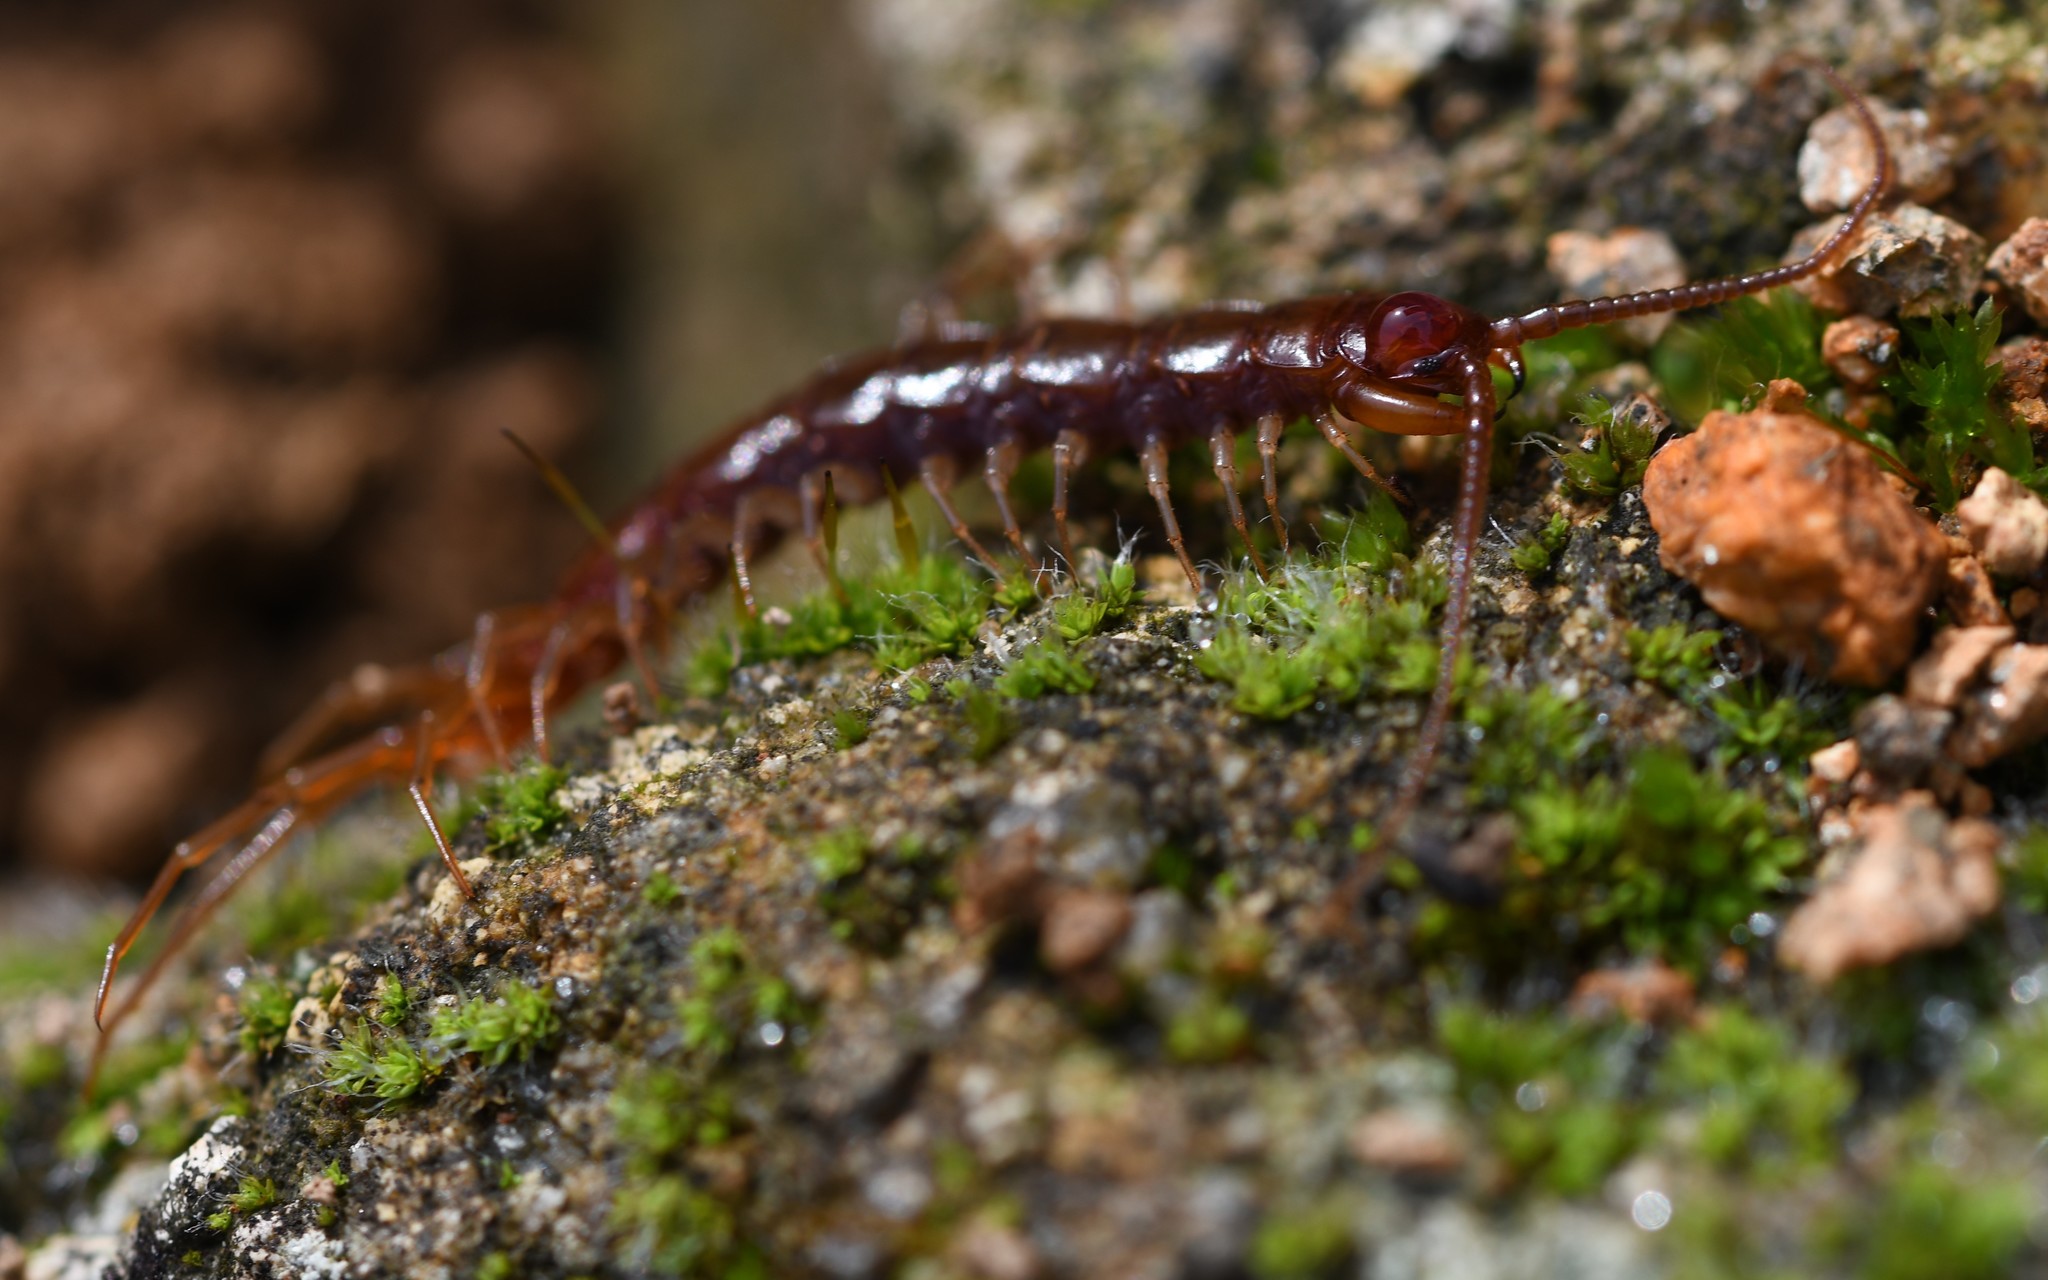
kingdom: Animalia
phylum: Arthropoda
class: Chilopoda
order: Lithobiomorpha
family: Lithobiidae
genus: Lithobius
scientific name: Lithobius forficatus
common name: Centipede
